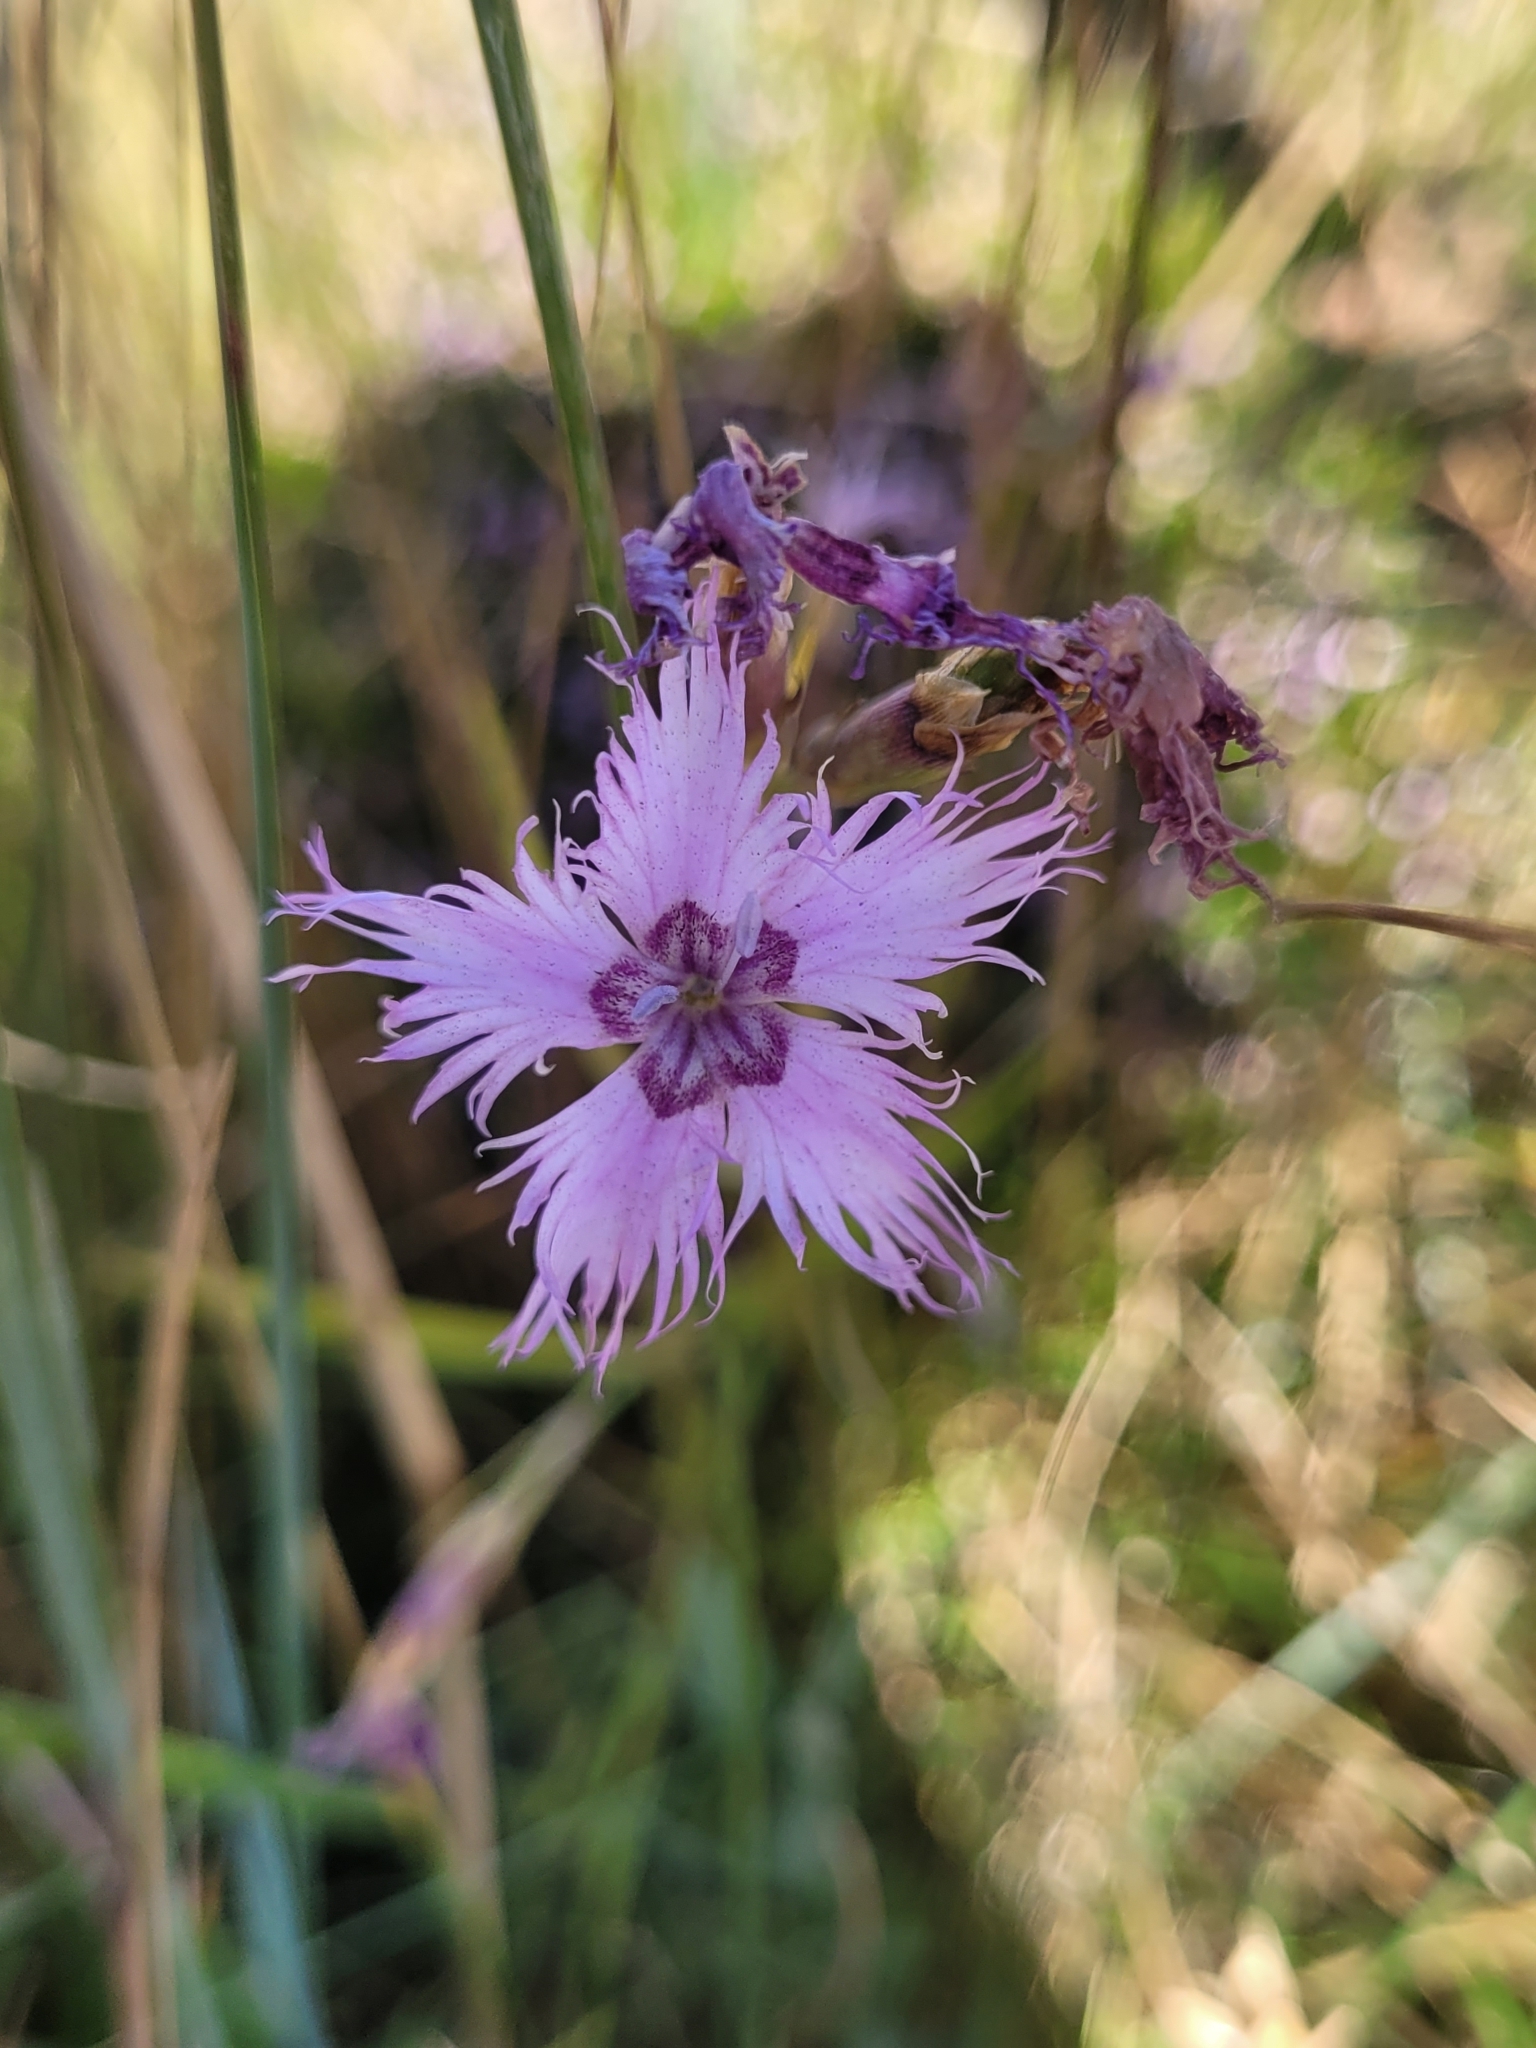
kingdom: Plantae
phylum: Tracheophyta
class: Magnoliopsida
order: Caryophyllales
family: Caryophyllaceae
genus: Dianthus
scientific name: Dianthus hyssopifolius
